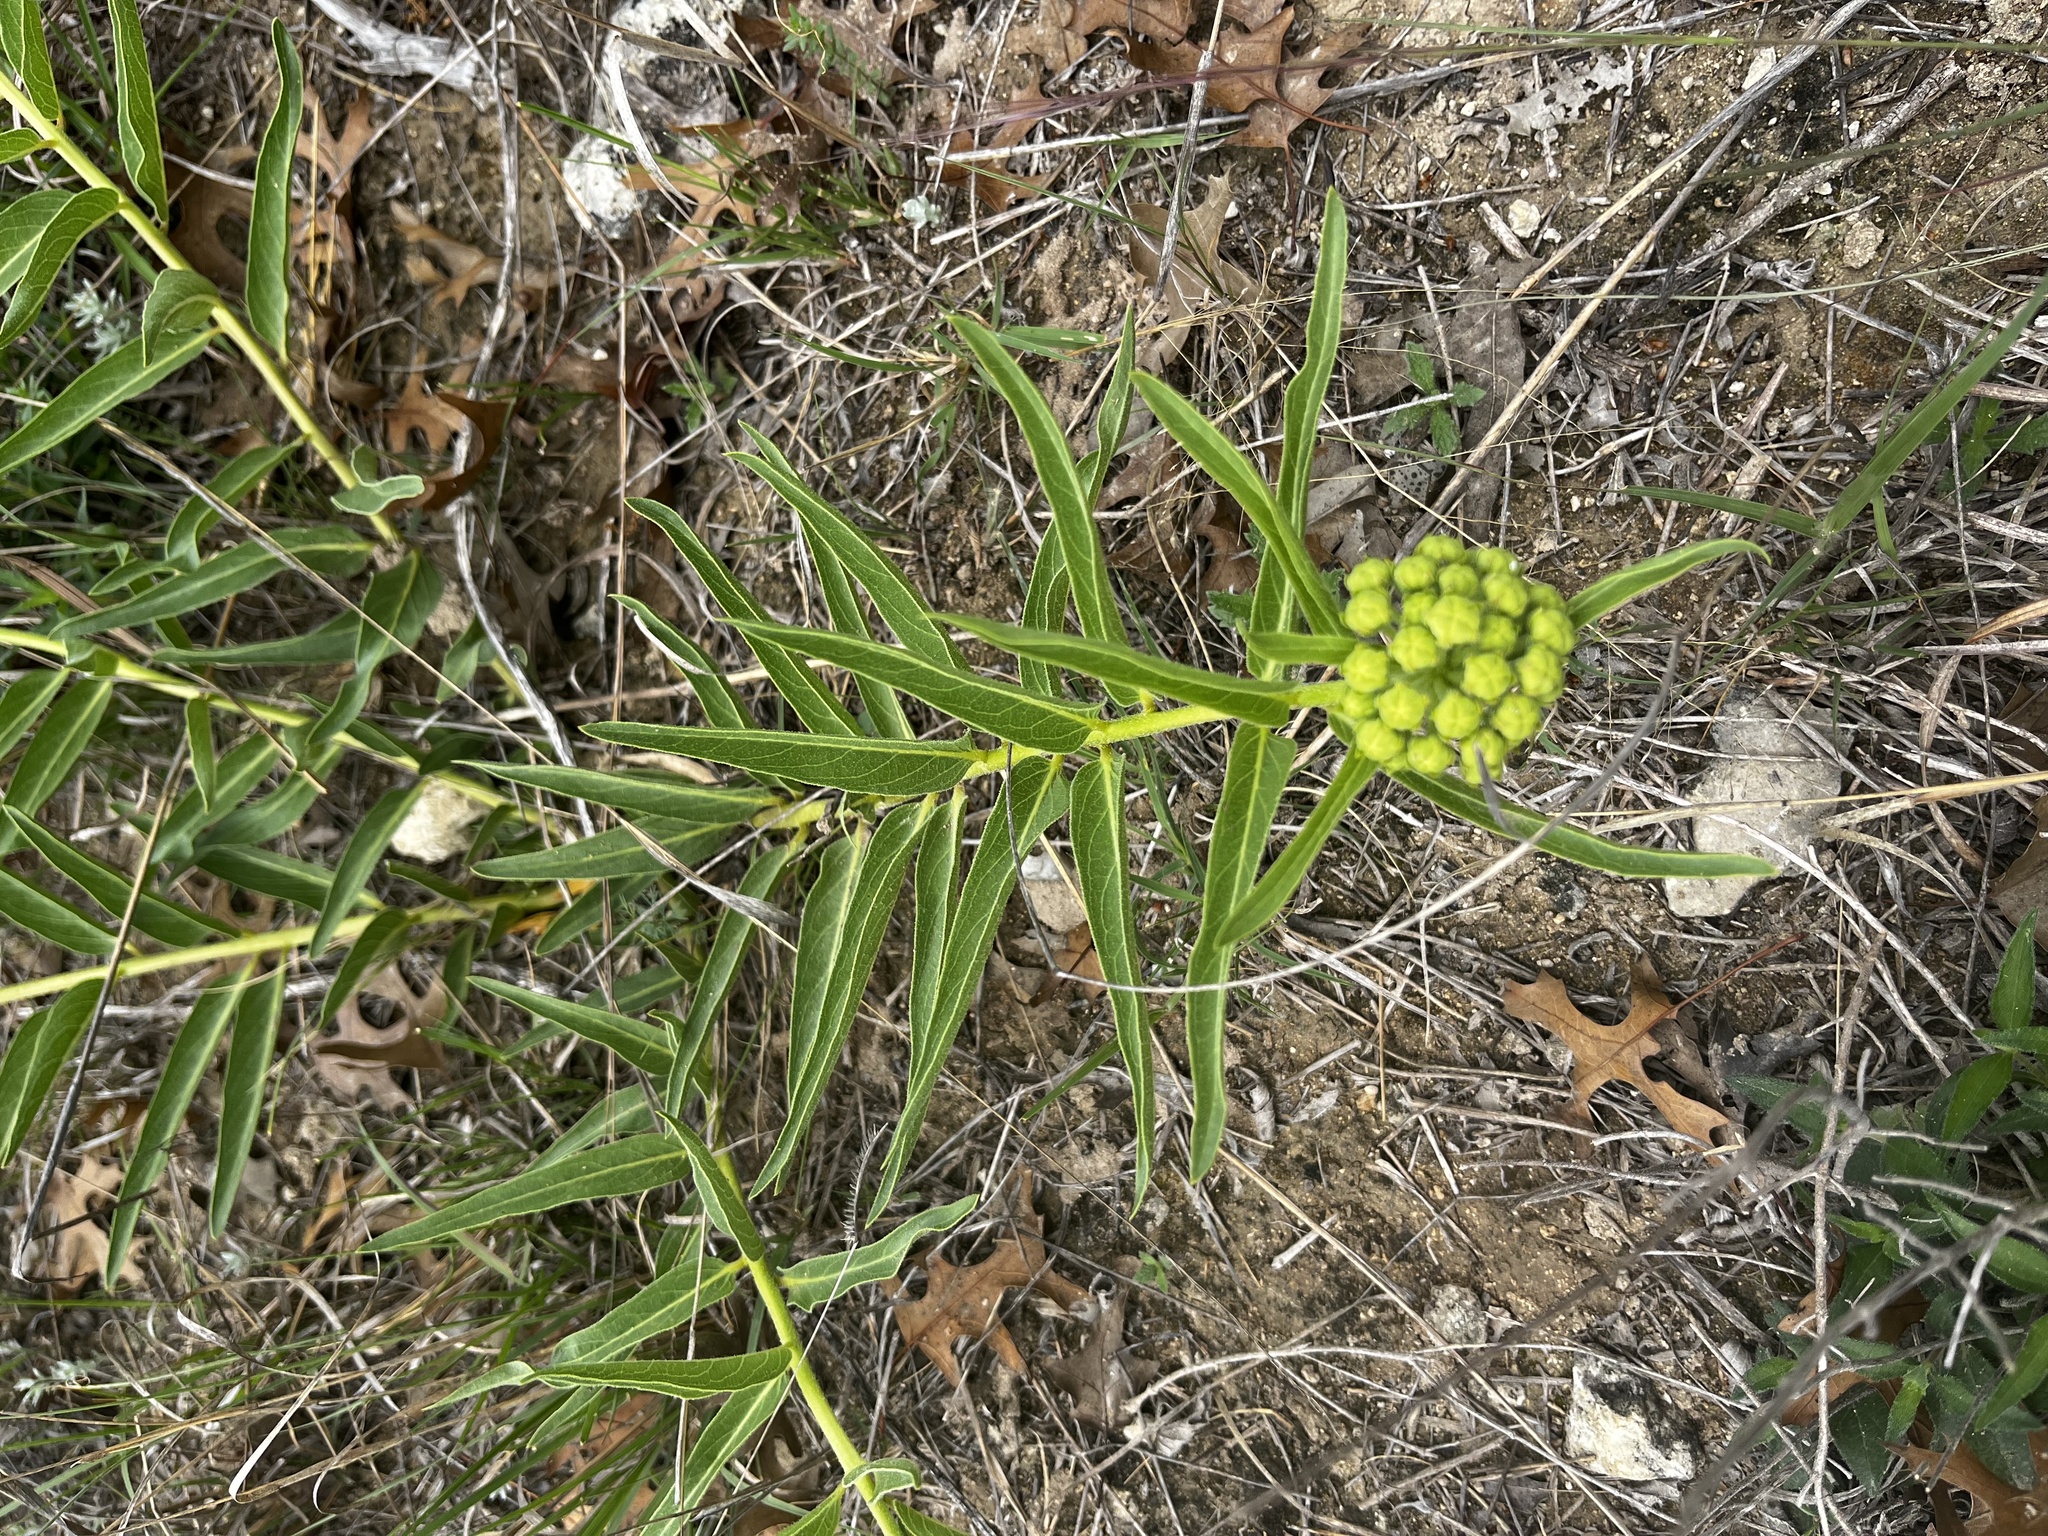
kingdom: Plantae
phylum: Tracheophyta
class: Magnoliopsida
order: Gentianales
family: Apocynaceae
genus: Asclepias
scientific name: Asclepias asperula
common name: Antelope horns
